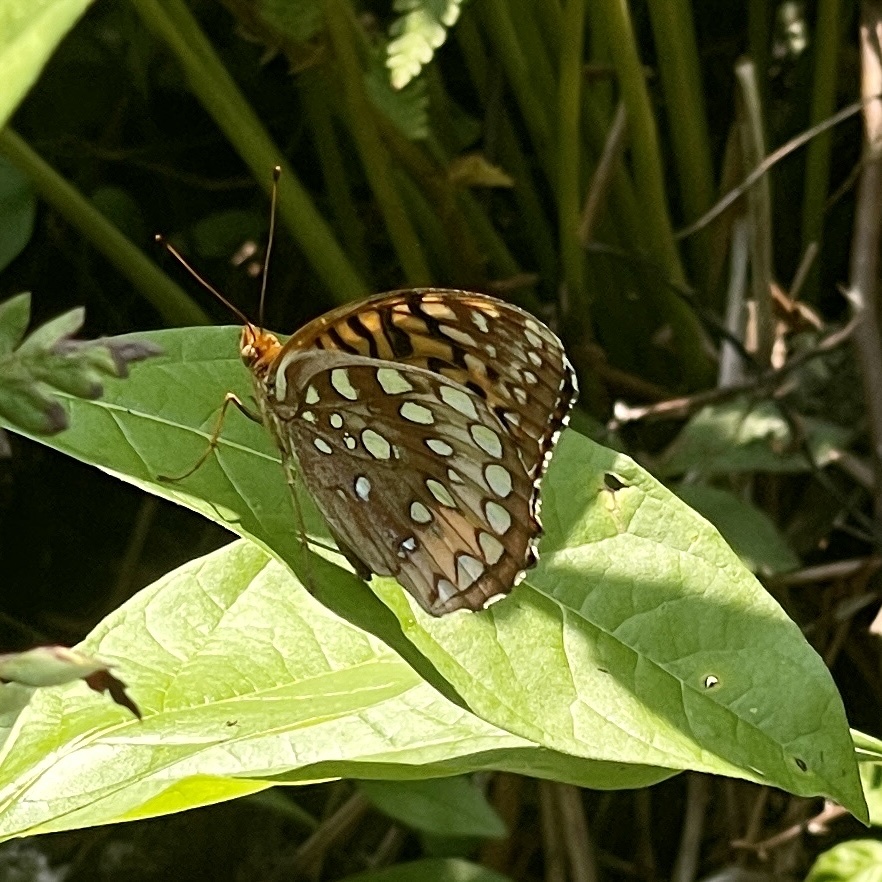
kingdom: Animalia
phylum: Arthropoda
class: Insecta
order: Lepidoptera
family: Nymphalidae
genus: Speyeria
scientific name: Speyeria cybele
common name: Great spangled fritillary
